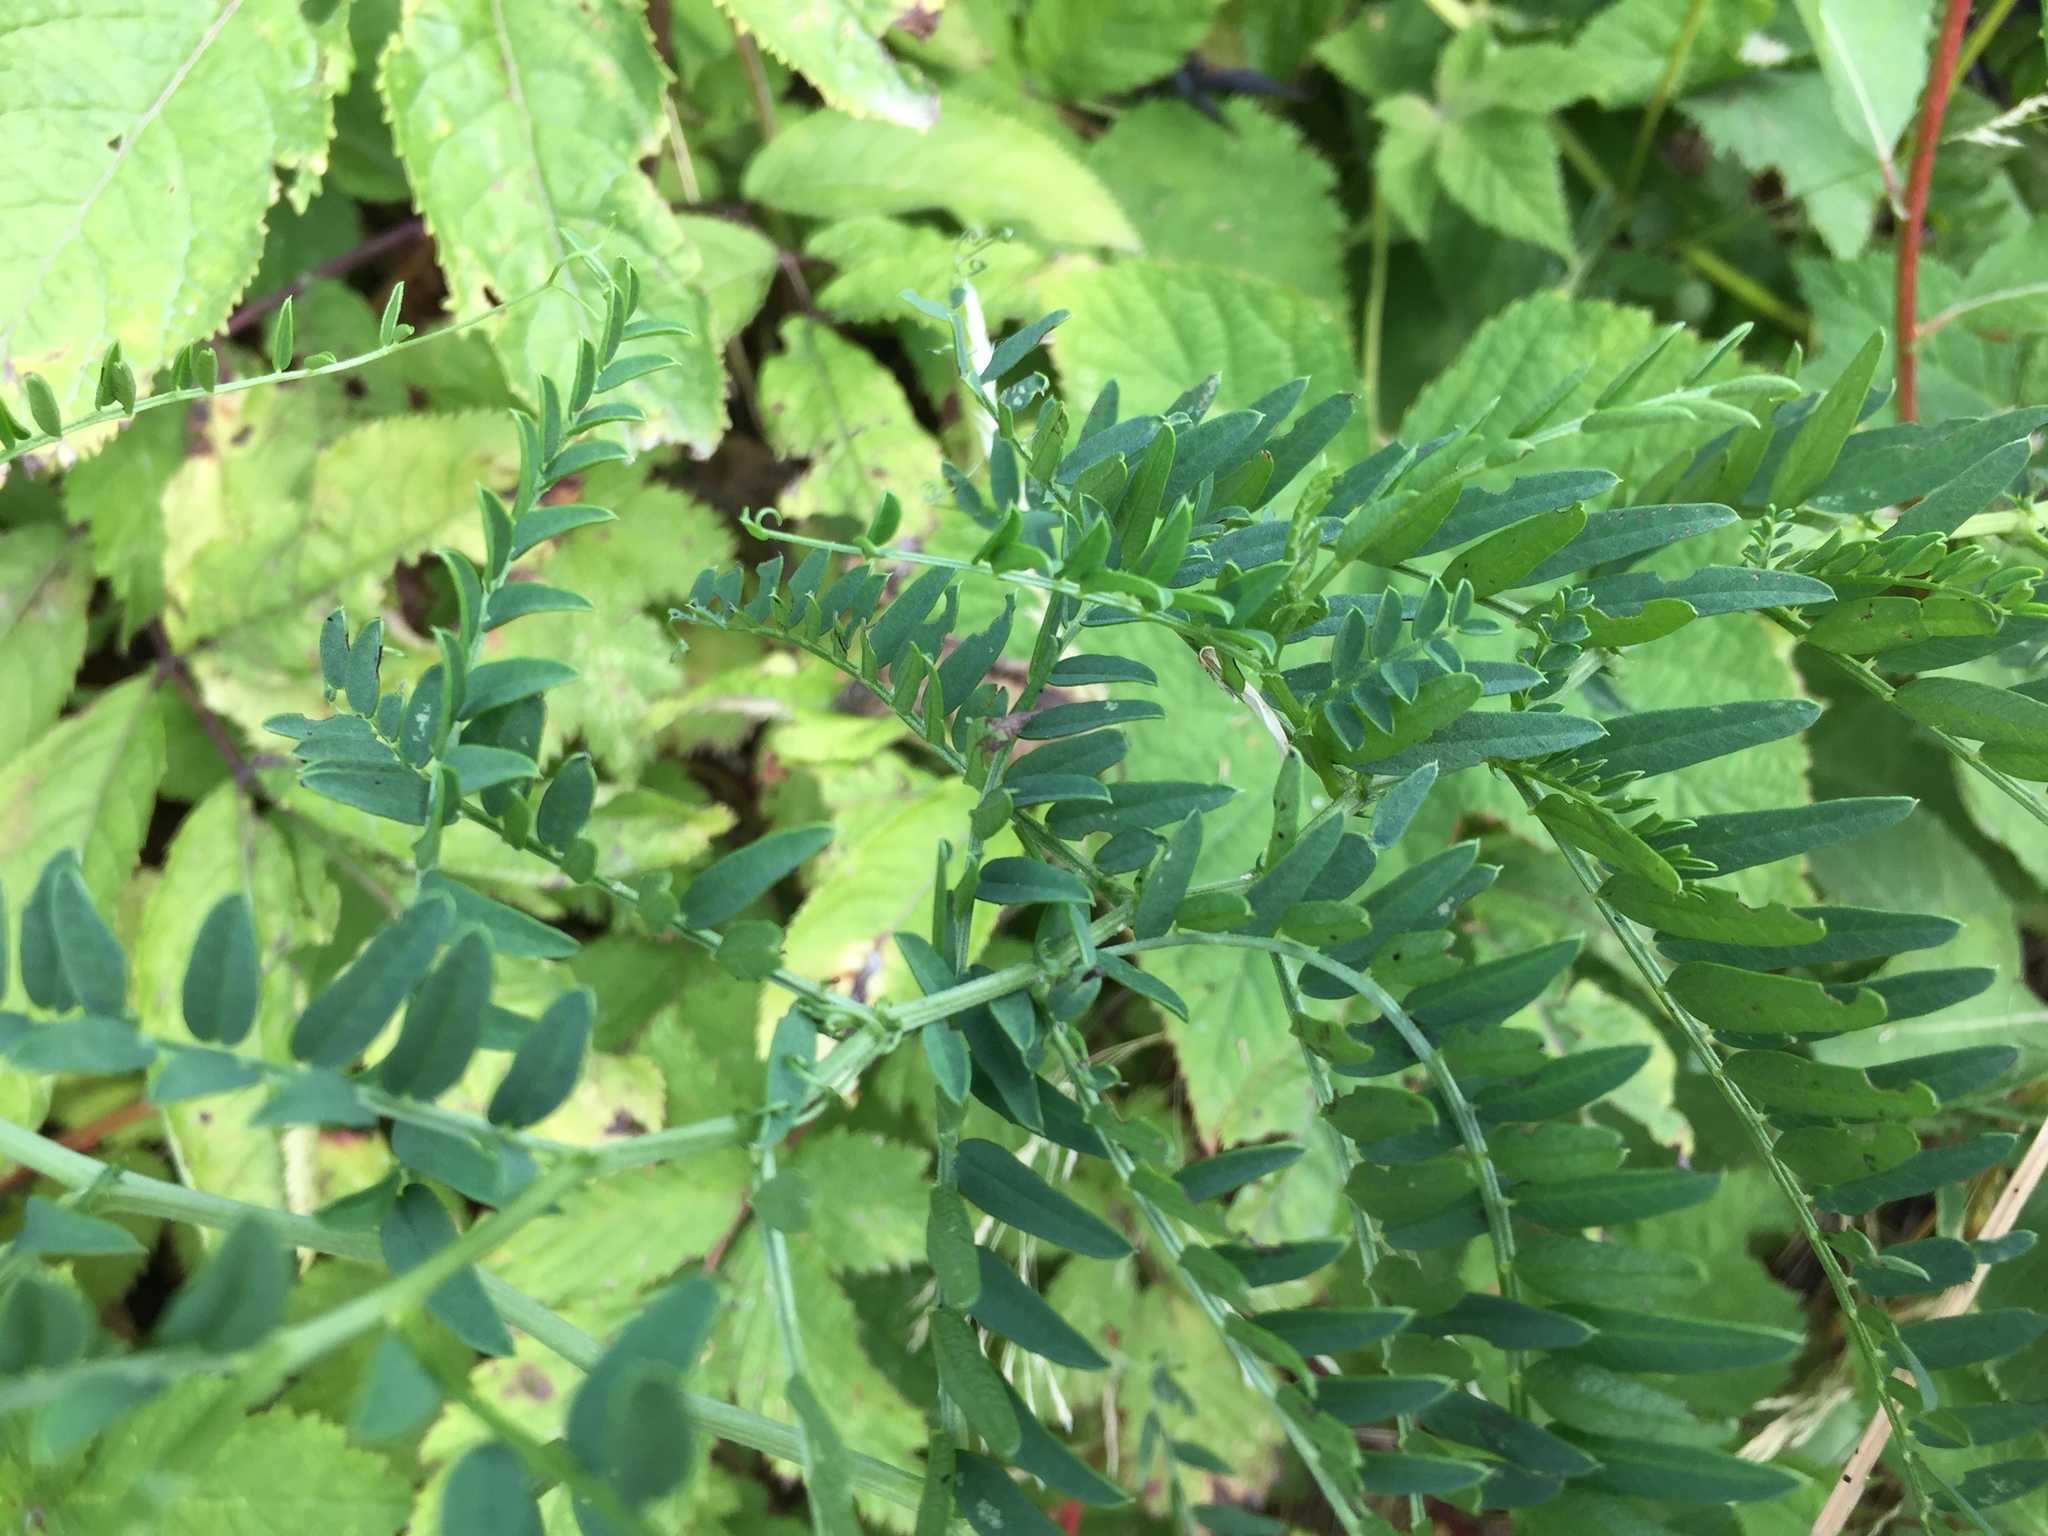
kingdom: Plantae
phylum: Tracheophyta
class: Magnoliopsida
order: Fabales
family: Fabaceae
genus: Vicia
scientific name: Vicia
